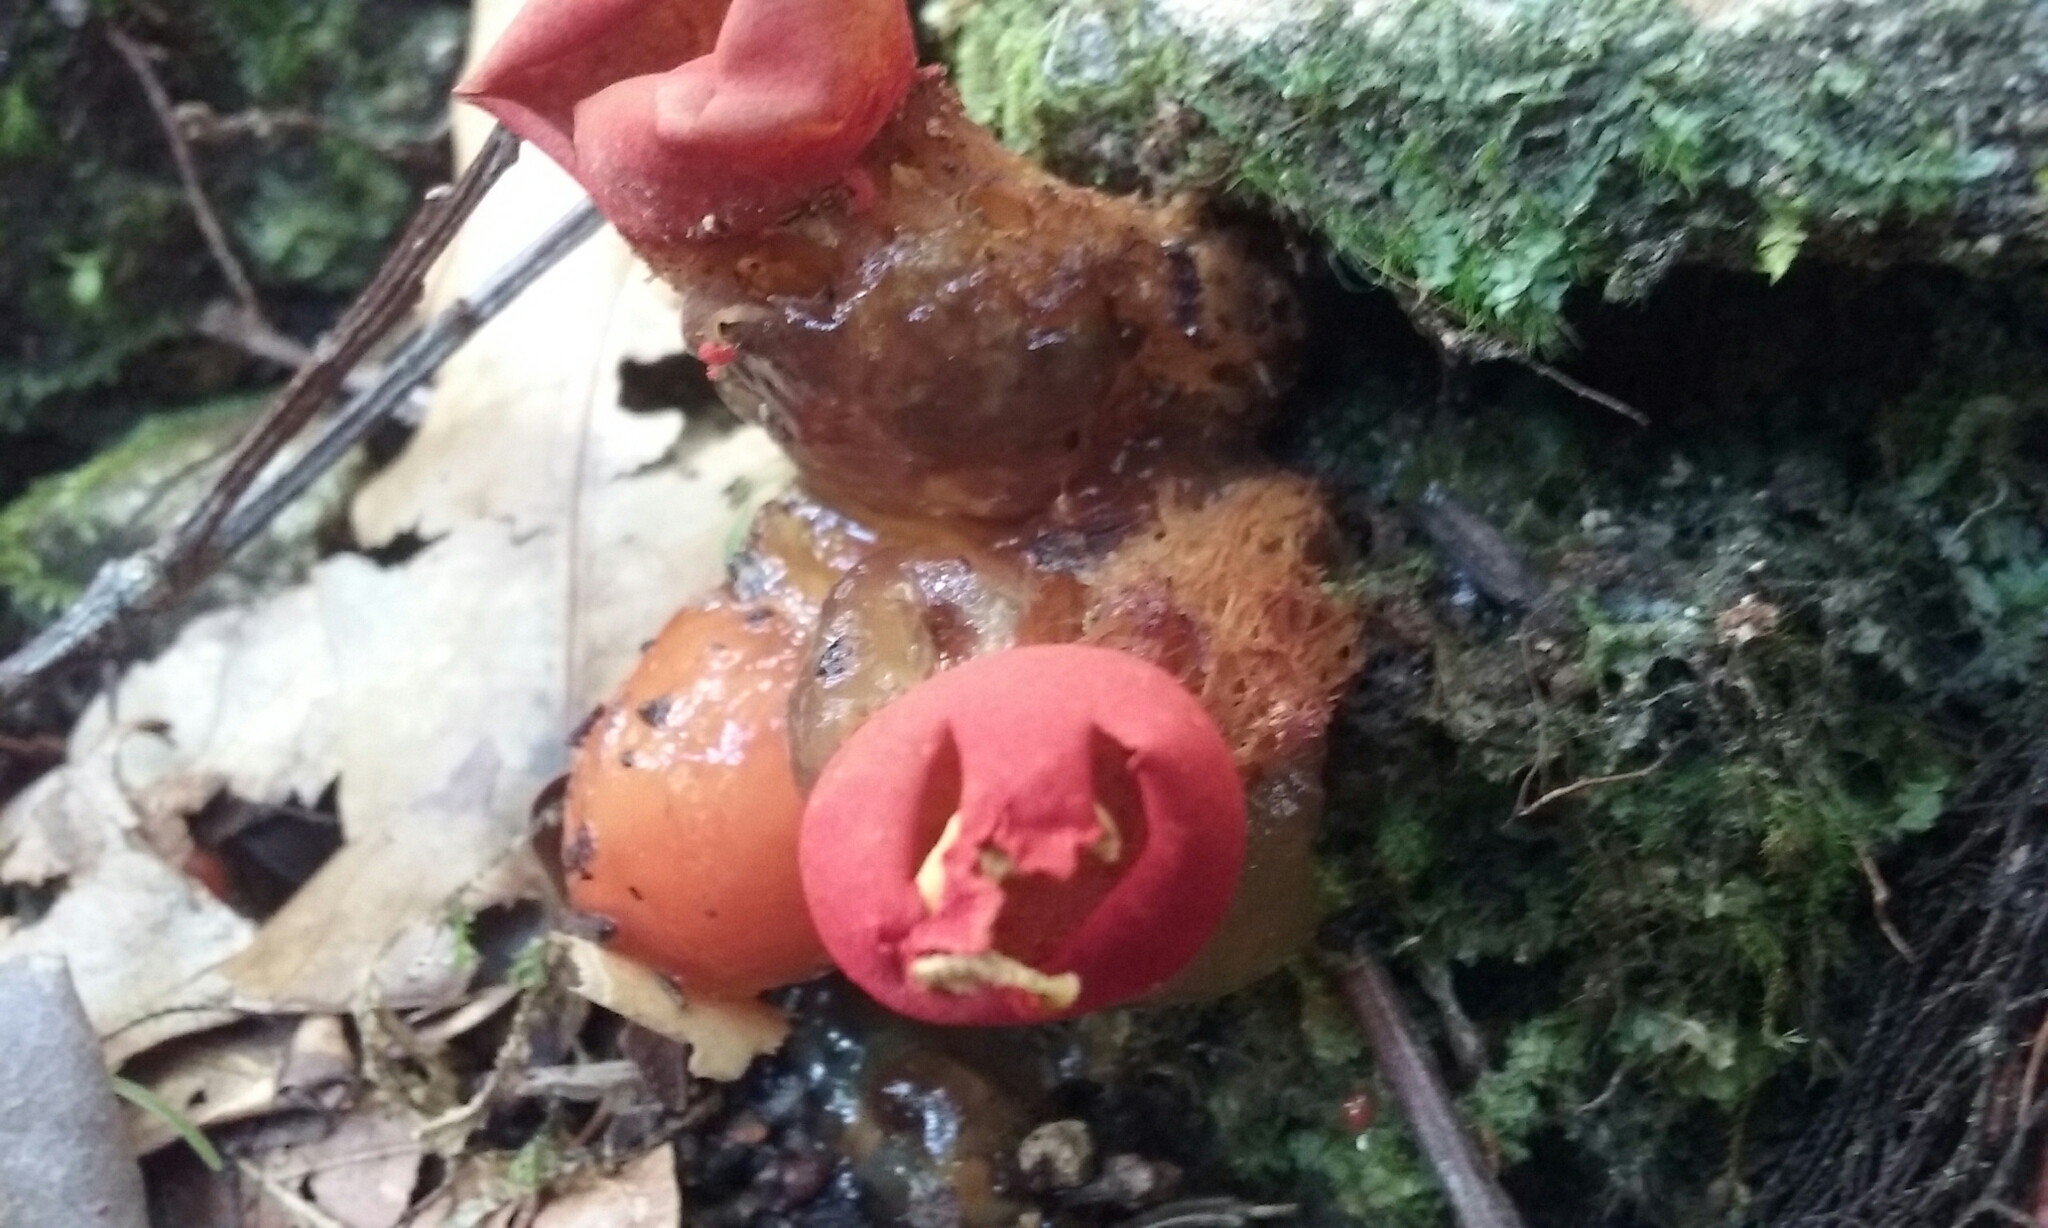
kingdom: Fungi
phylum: Basidiomycota
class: Agaricomycetes
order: Boletales
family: Calostomataceae
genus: Calostoma
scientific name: Calostoma cinnabarinum
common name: Stalked puffball-in-aspic
